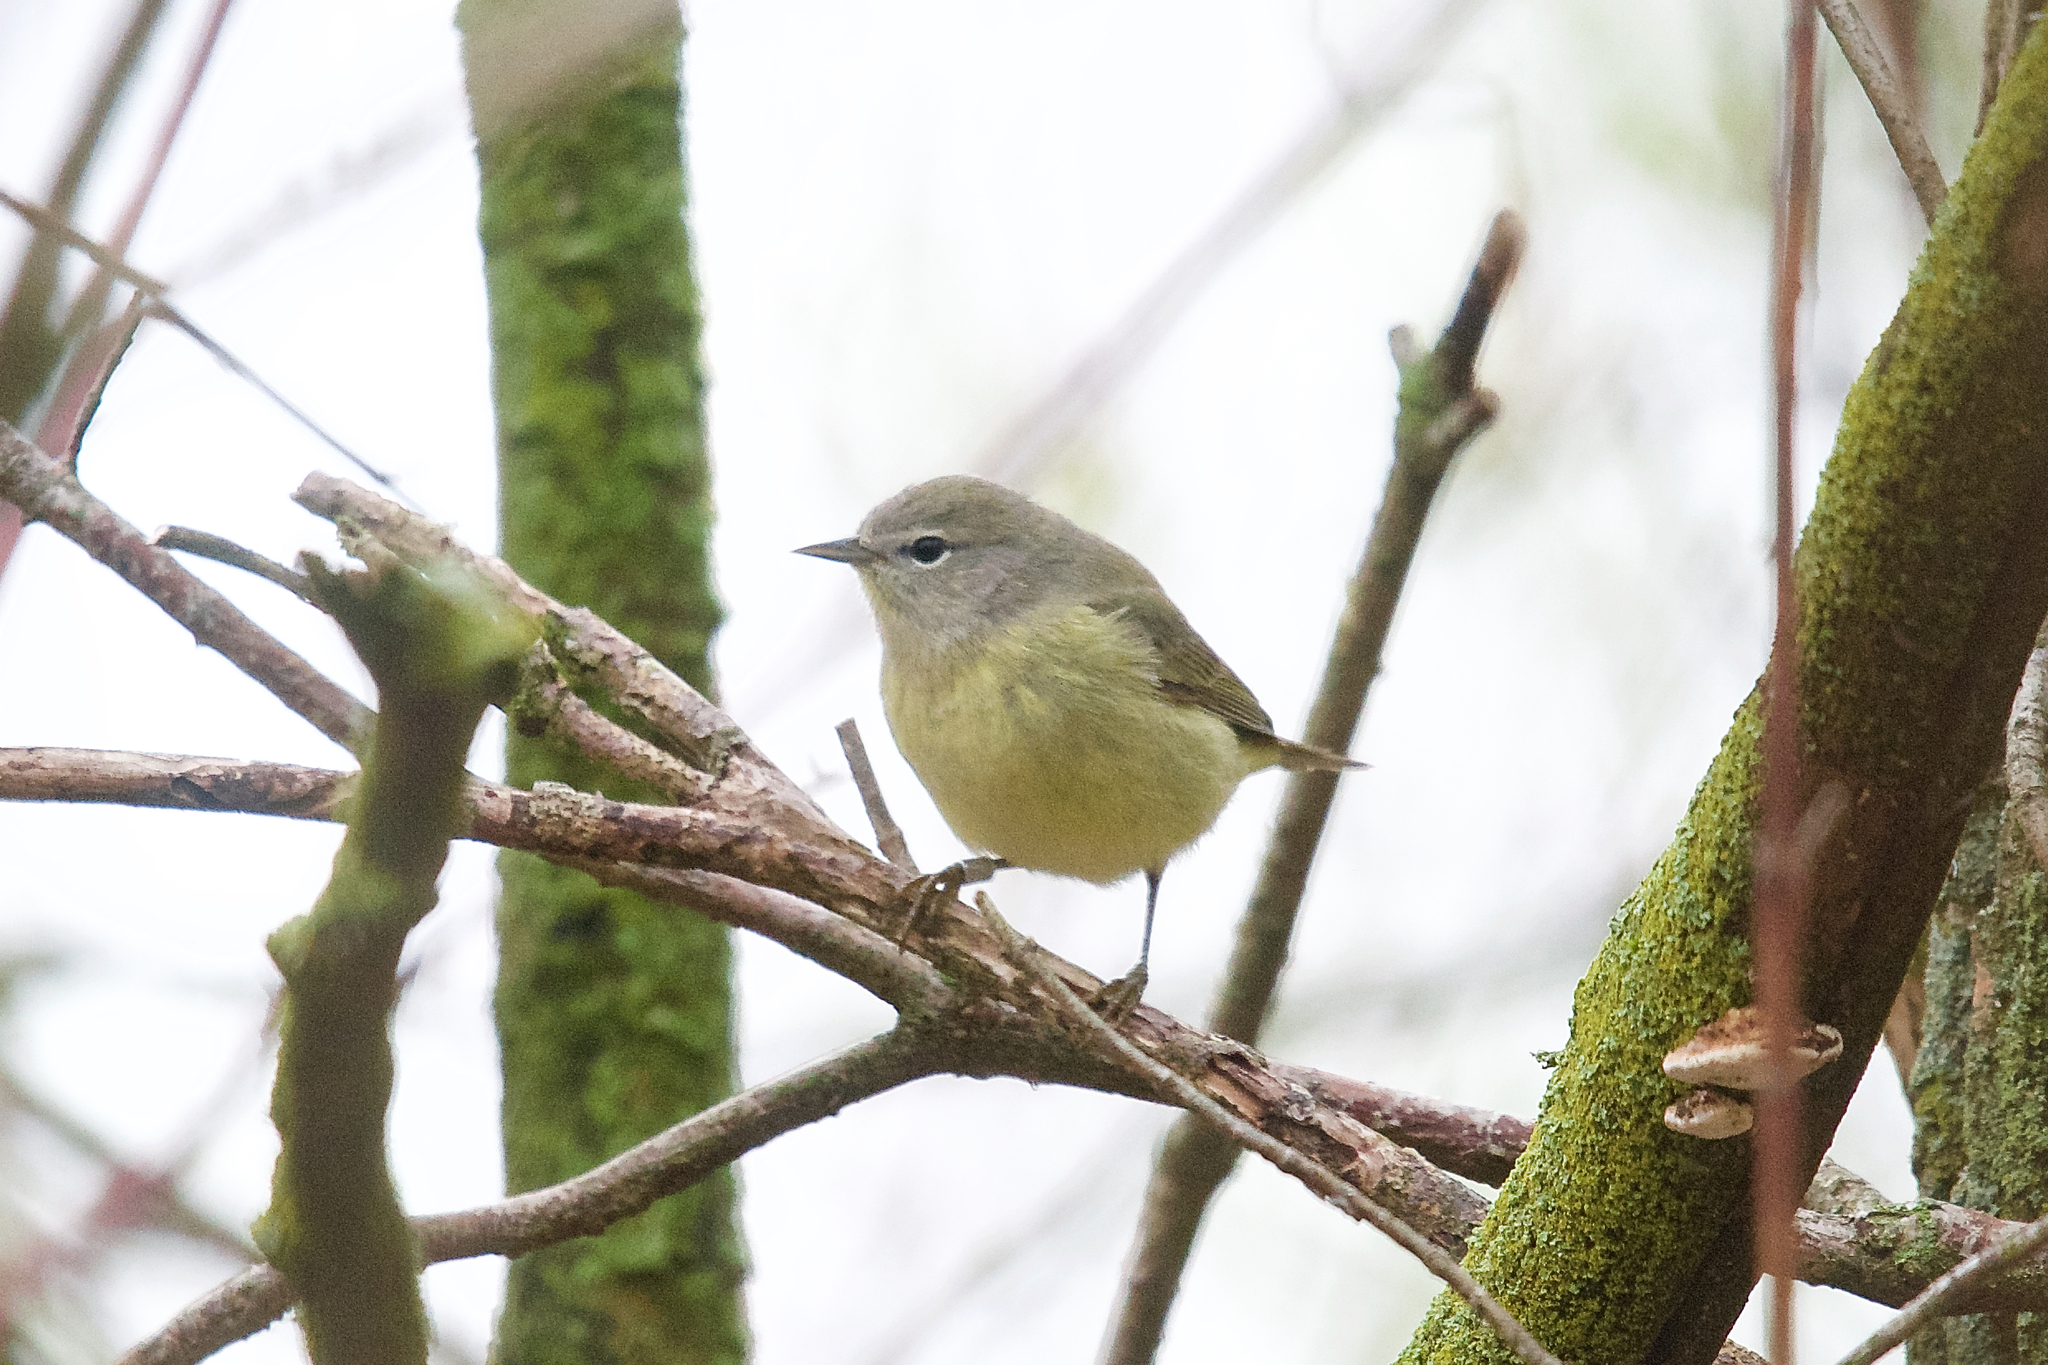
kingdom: Animalia
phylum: Chordata
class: Aves
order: Passeriformes
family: Parulidae
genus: Leiothlypis
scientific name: Leiothlypis celata
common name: Orange-crowned warbler
